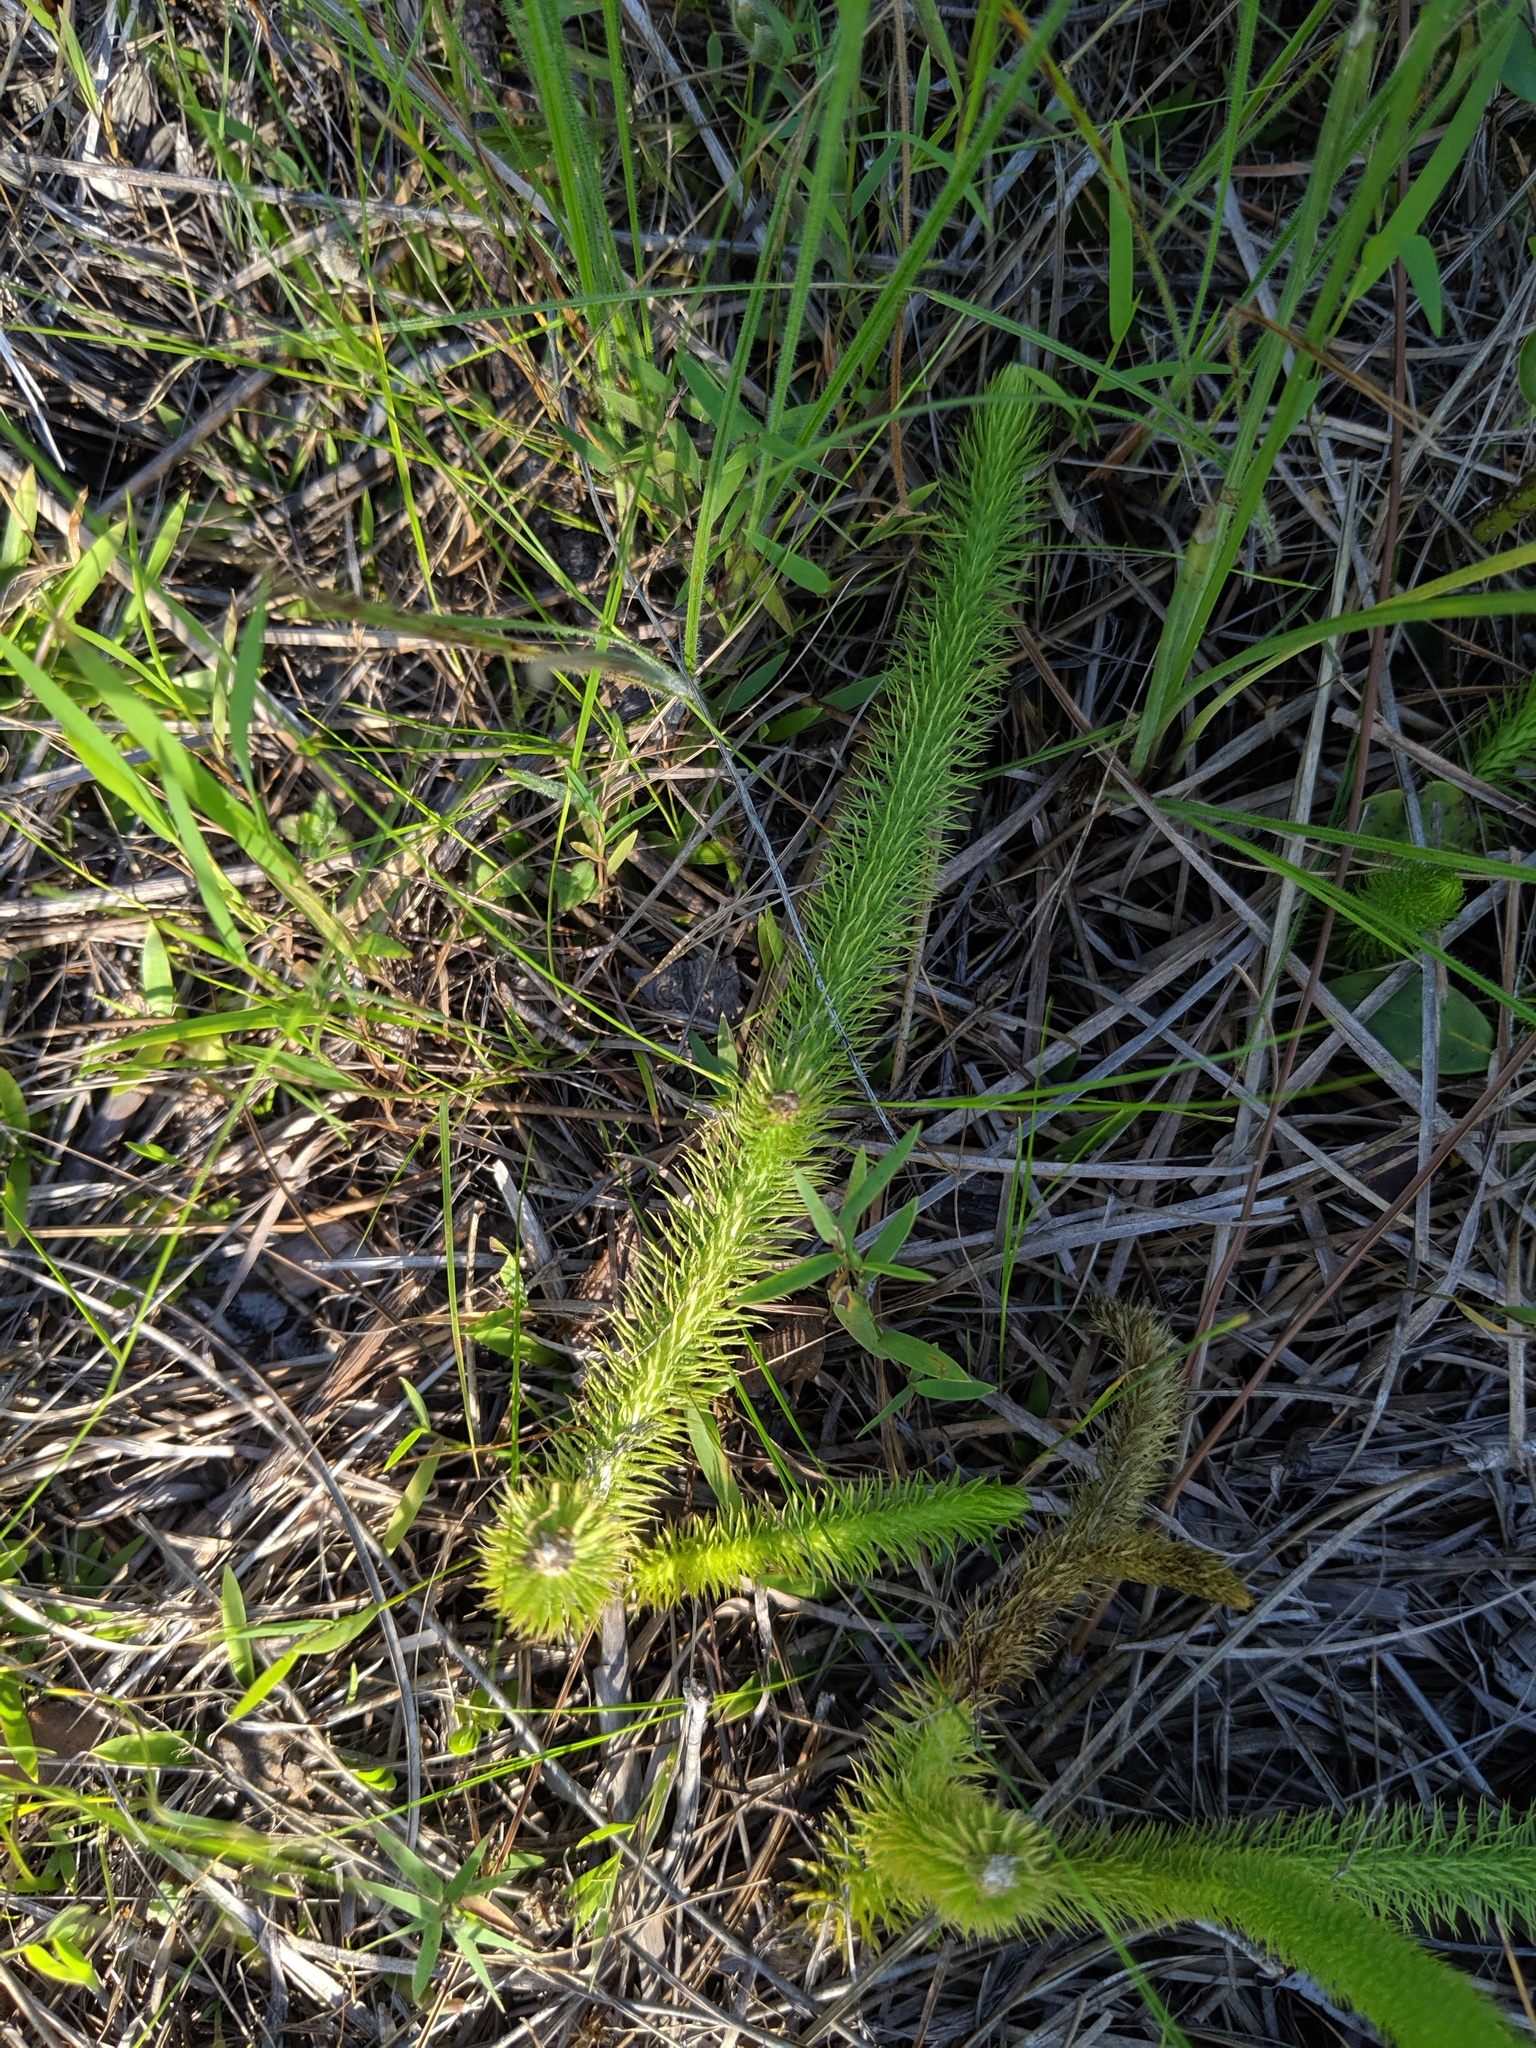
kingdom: Plantae
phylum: Tracheophyta
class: Lycopodiopsida
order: Lycopodiales
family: Lycopodiaceae
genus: Lycopodiella
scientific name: Lycopodiella alopecuroides
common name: Foxtail clubmoss
